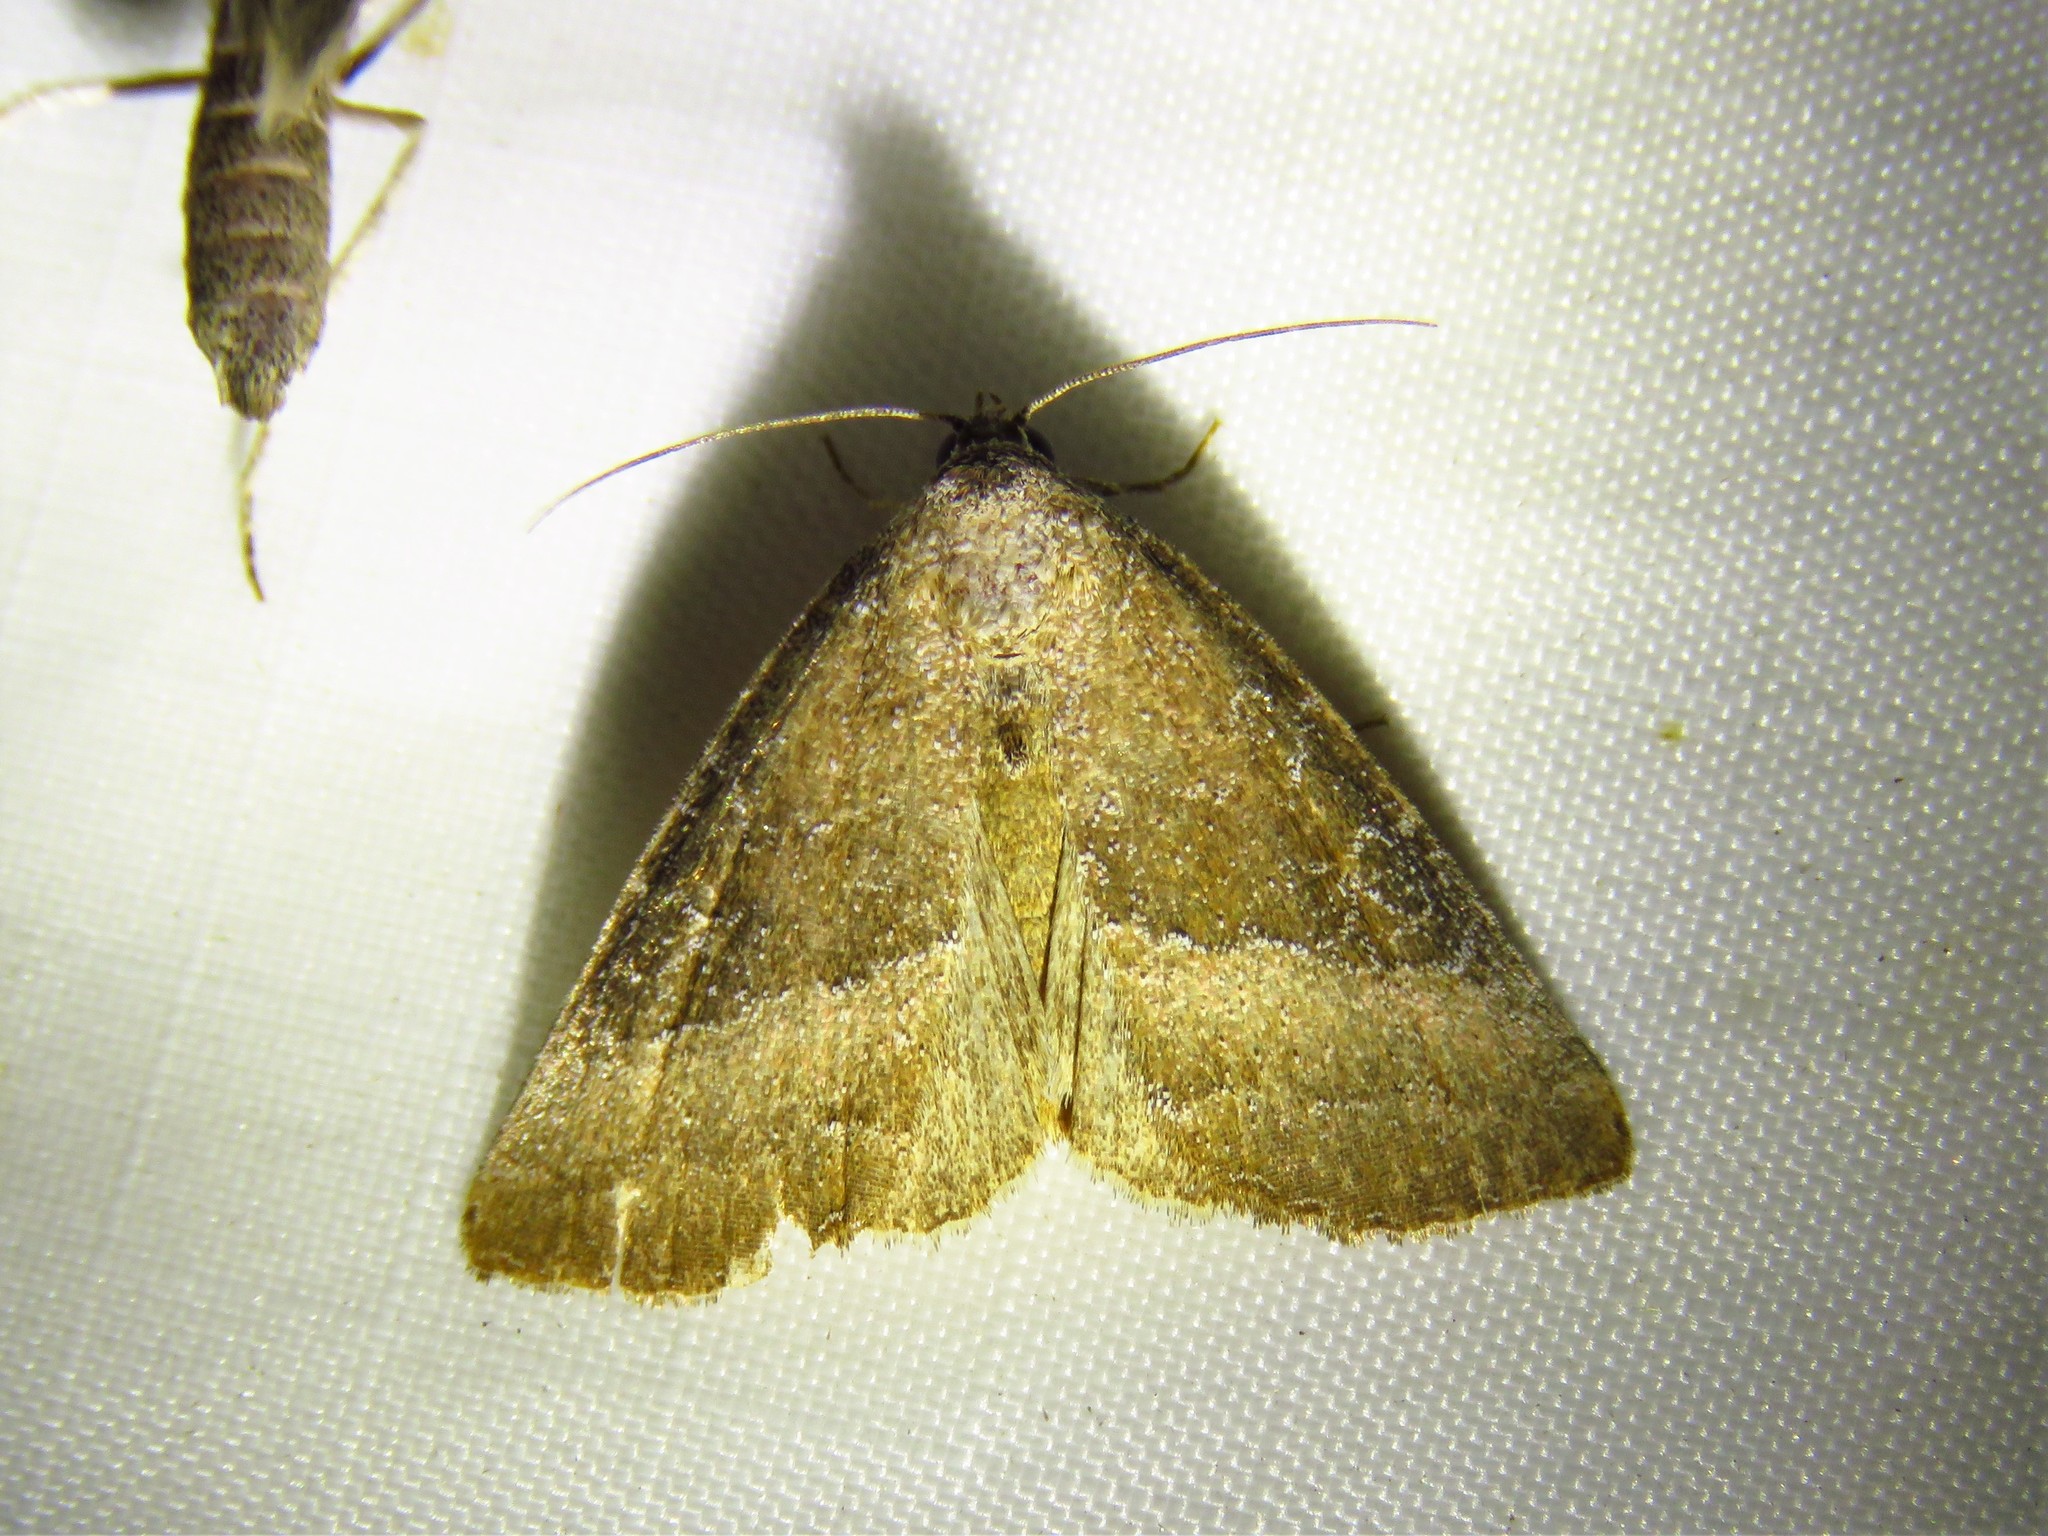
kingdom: Animalia
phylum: Arthropoda
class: Insecta
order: Lepidoptera
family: Noctuidae
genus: Ogdoconta
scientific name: Ogdoconta cinereola
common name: Common pinkband
